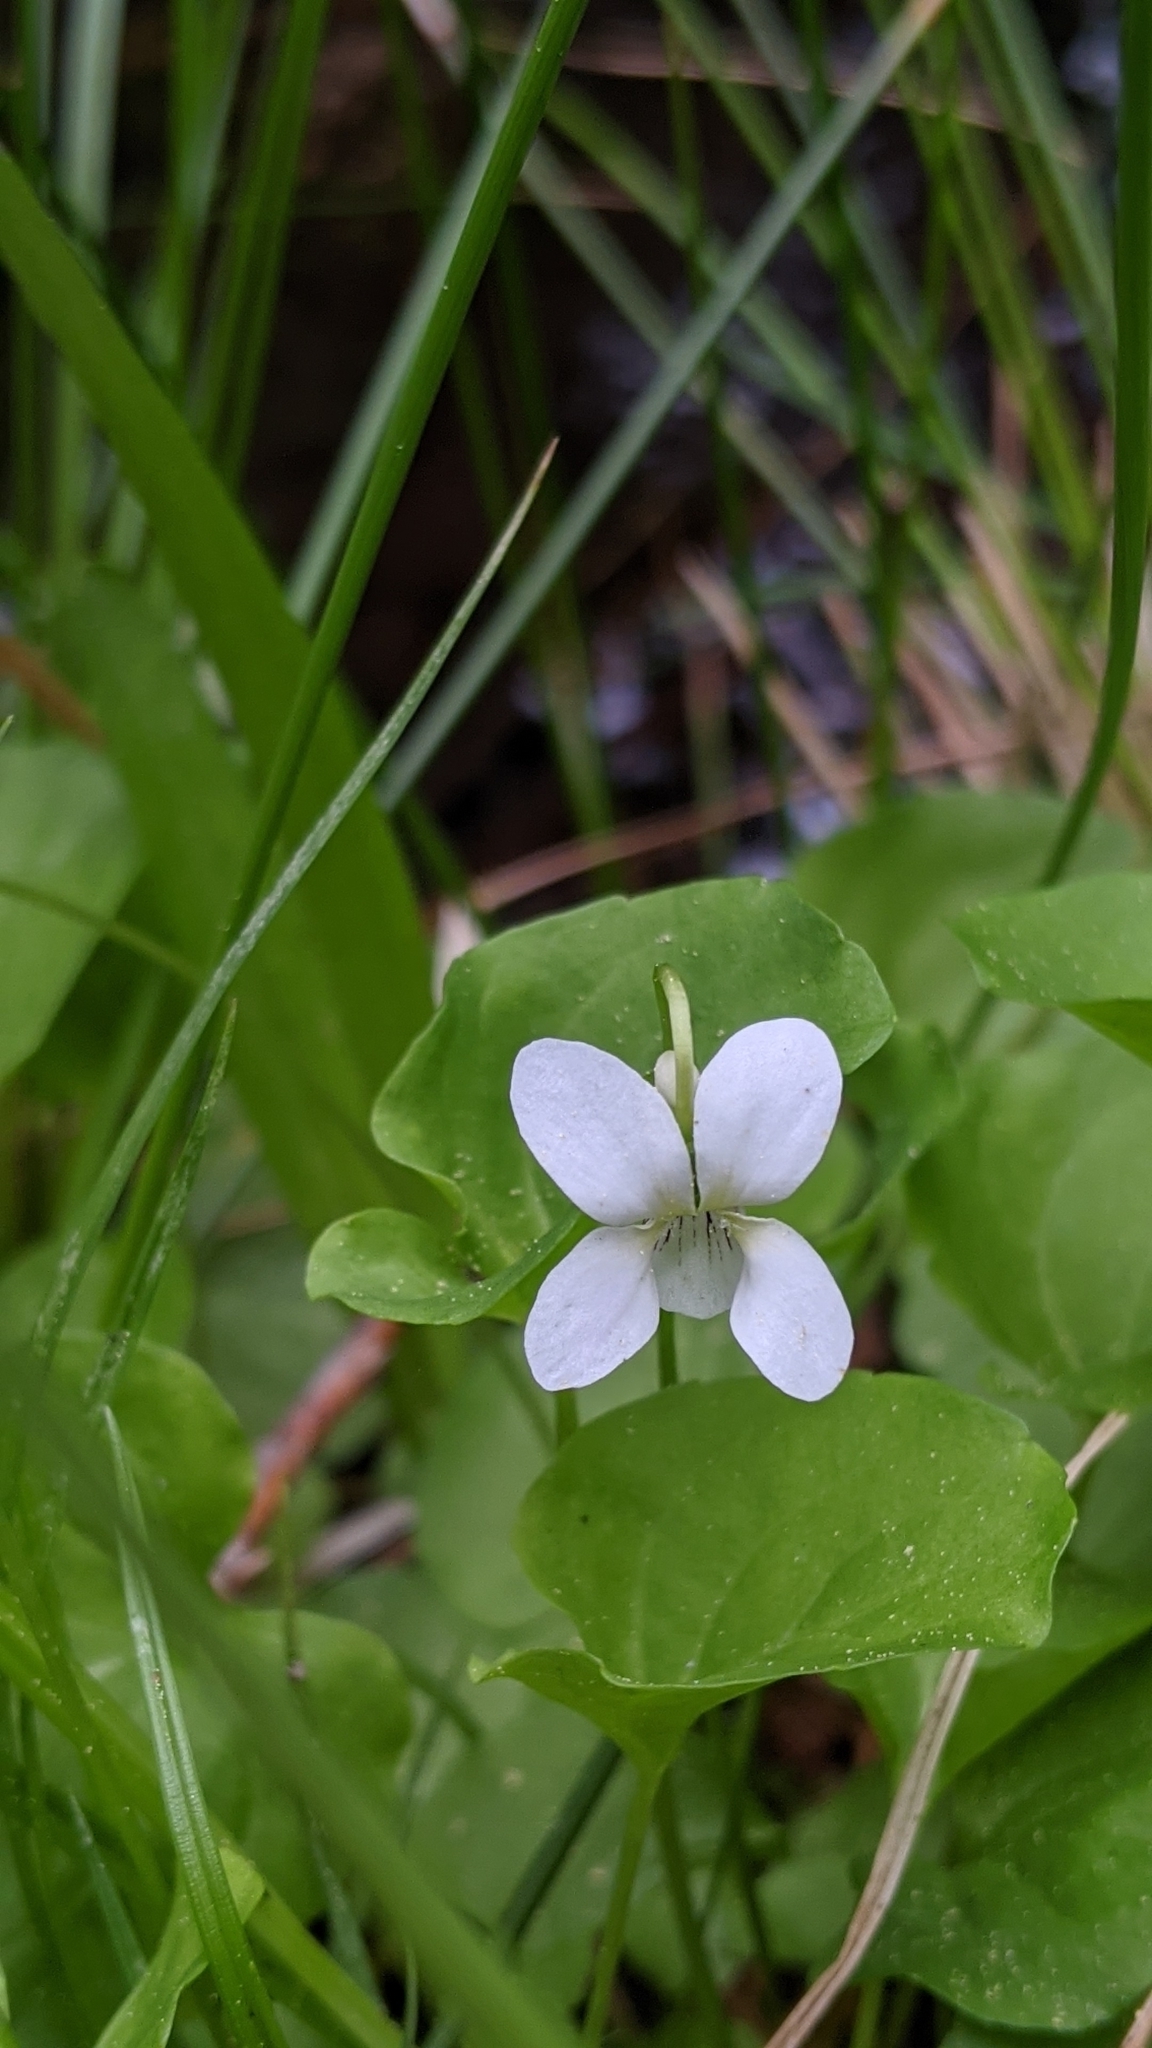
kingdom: Plantae
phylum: Tracheophyta
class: Magnoliopsida
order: Malpighiales
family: Violaceae
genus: Viola
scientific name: Viola macloskeyi
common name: Macloskey's violet
